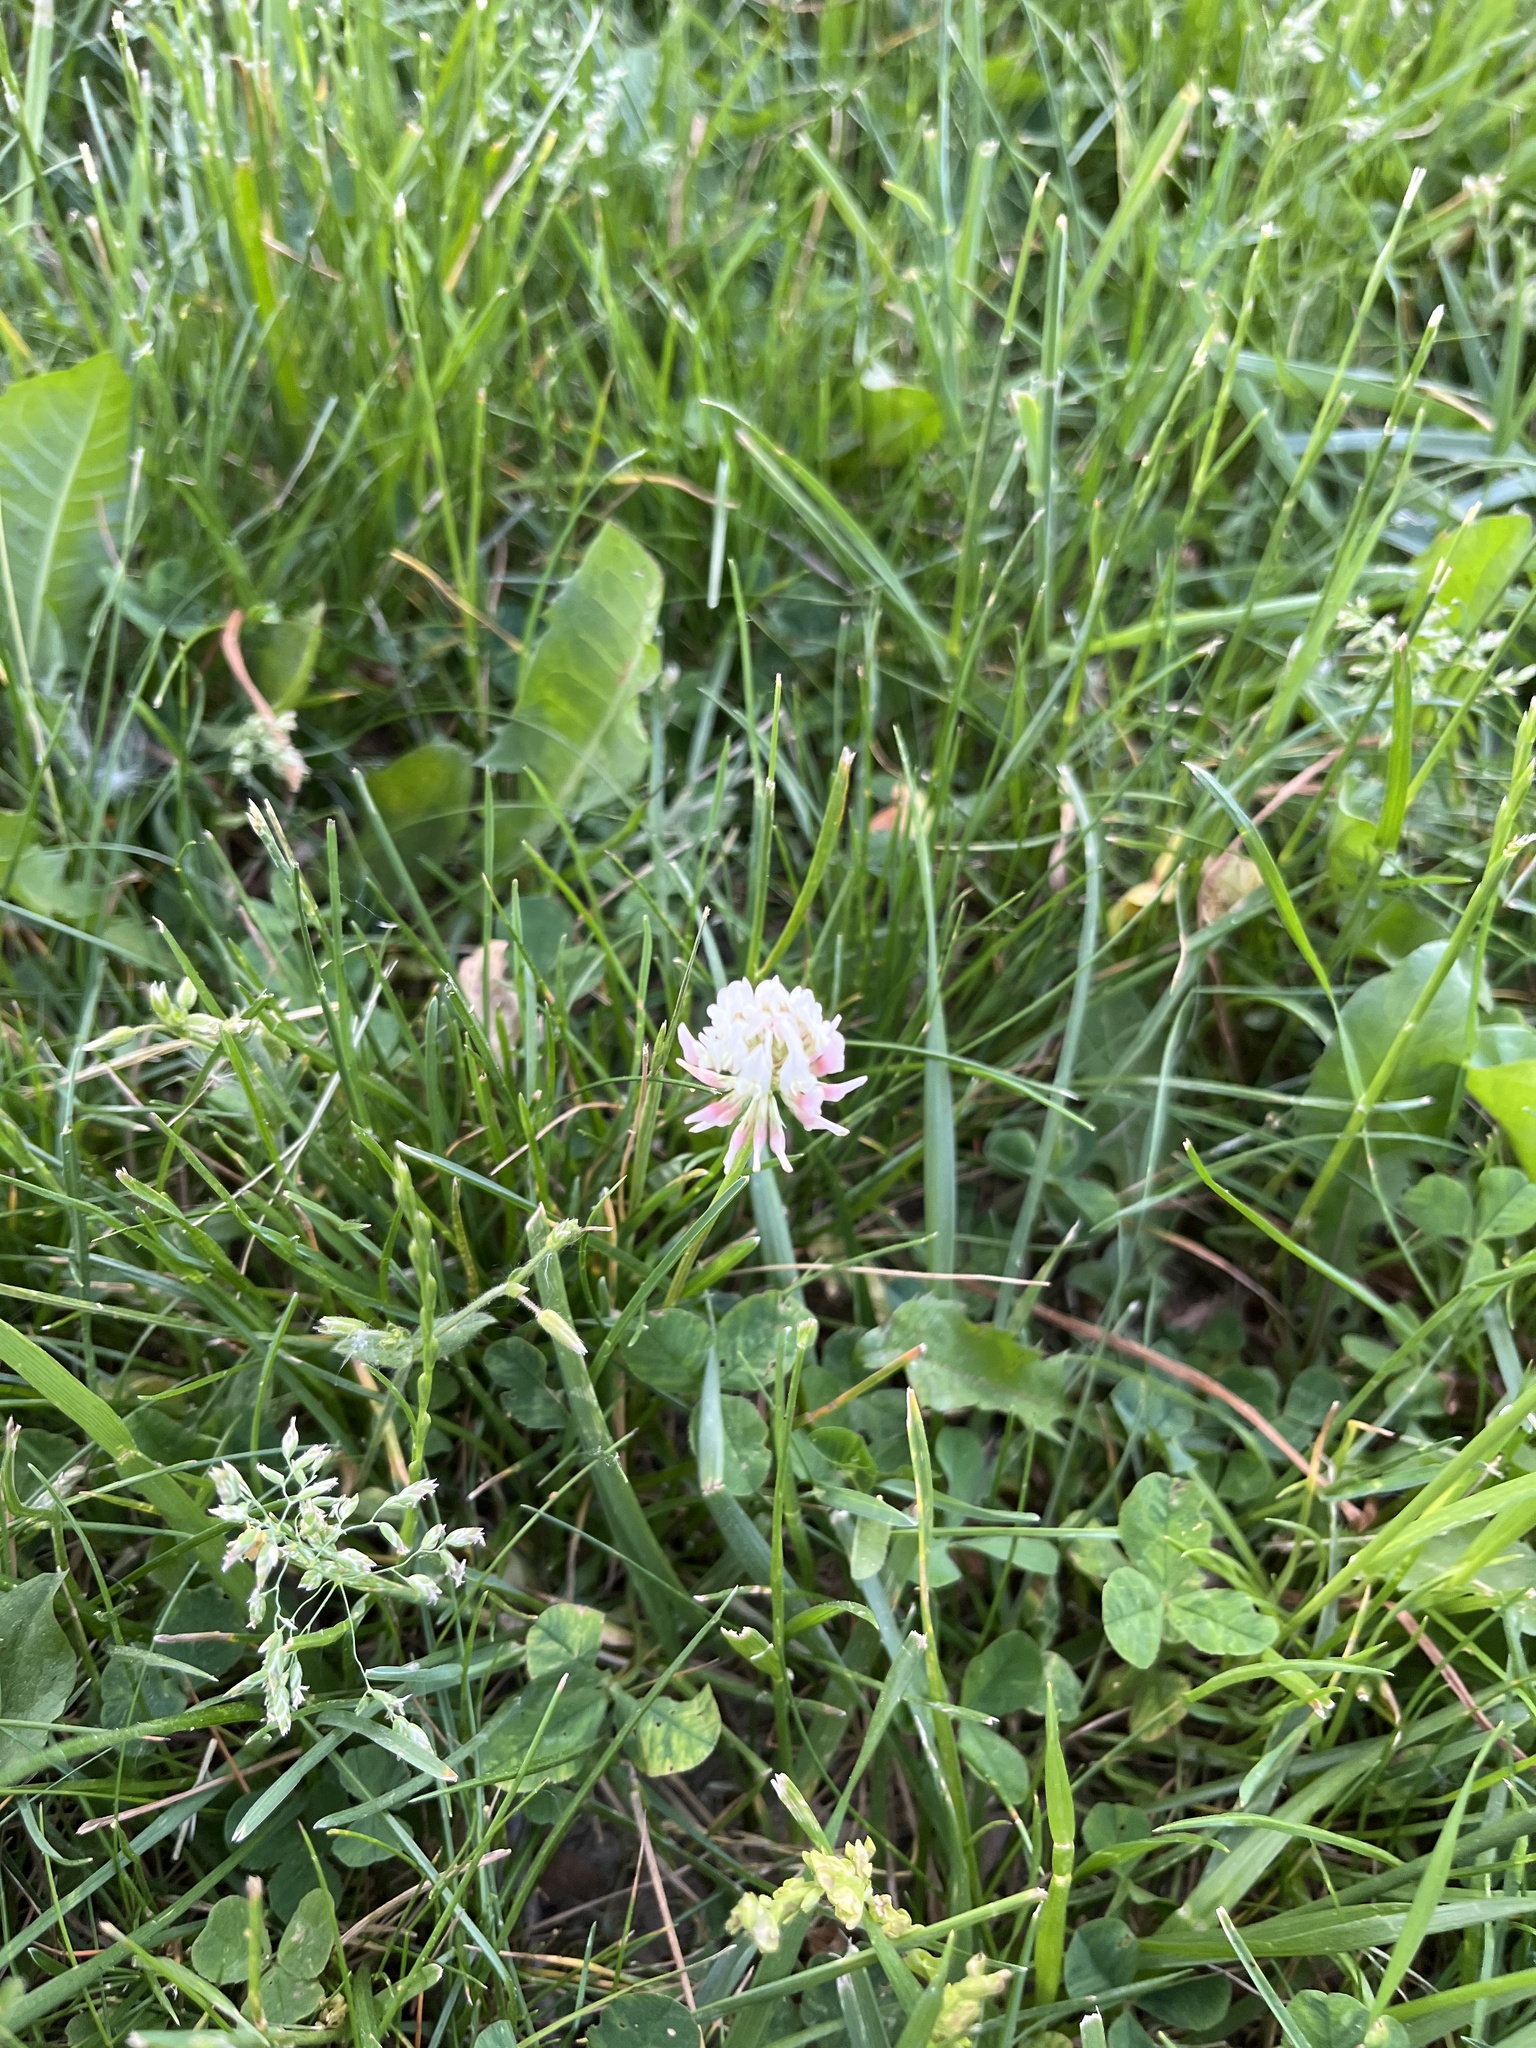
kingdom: Plantae
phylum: Tracheophyta
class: Magnoliopsida
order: Fabales
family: Fabaceae
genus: Trifolium
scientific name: Trifolium repens
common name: White clover
